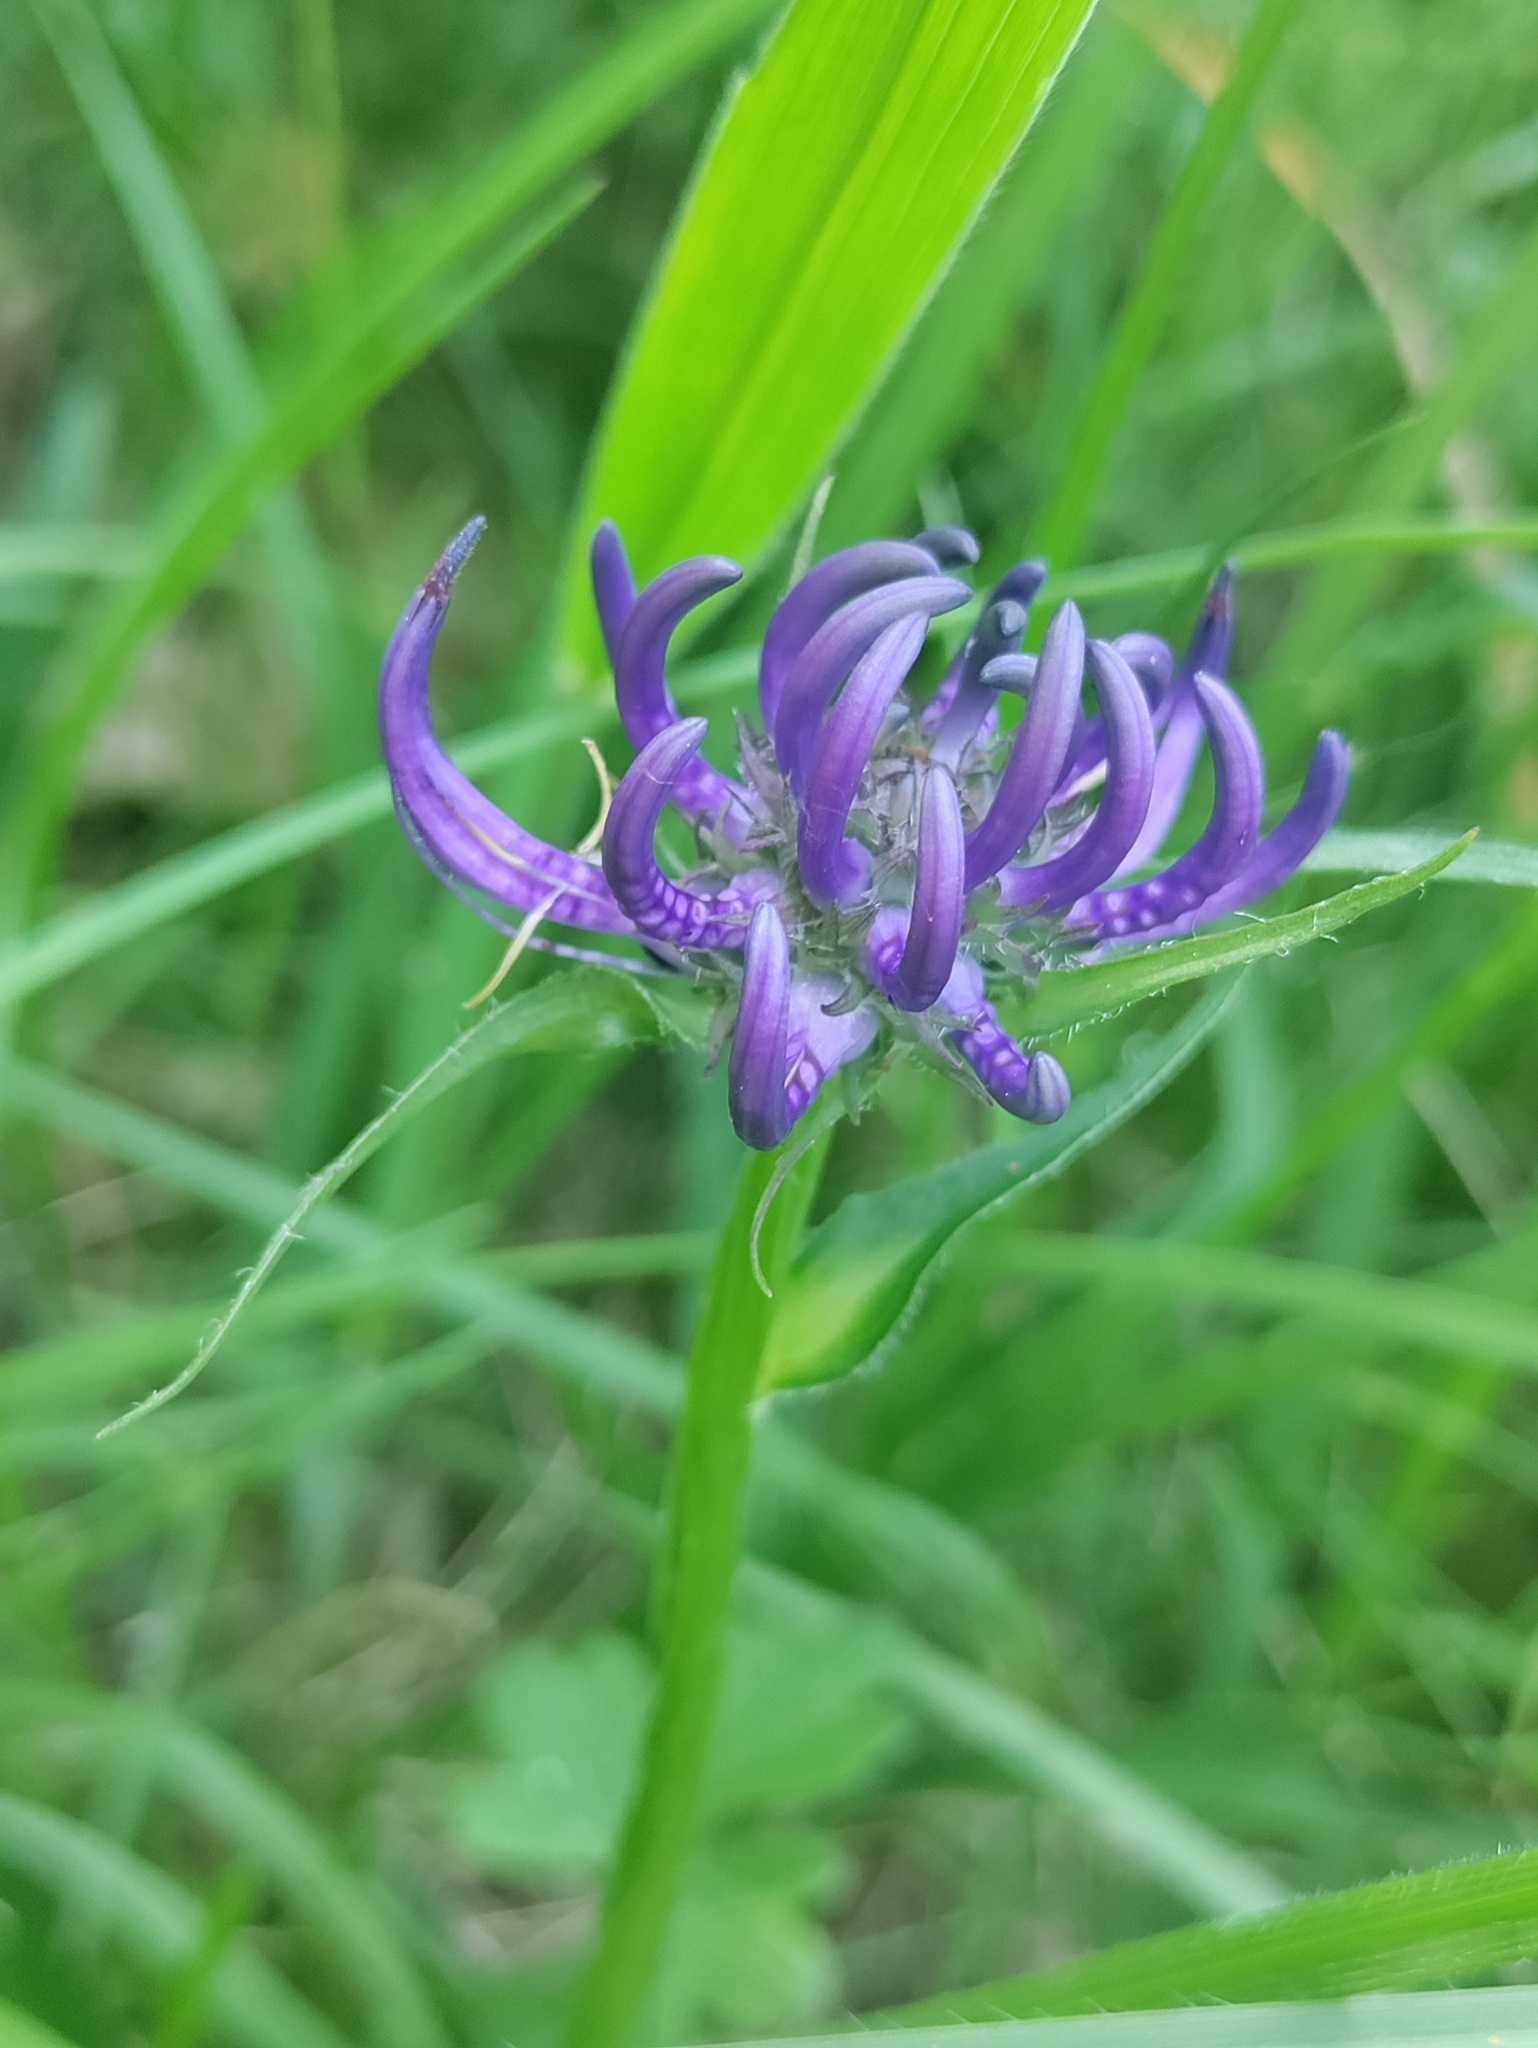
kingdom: Plantae
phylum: Tracheophyta
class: Magnoliopsida
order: Asterales
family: Campanulaceae
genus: Phyteuma
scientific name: Phyteuma orbiculare
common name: Round-headed rampion
